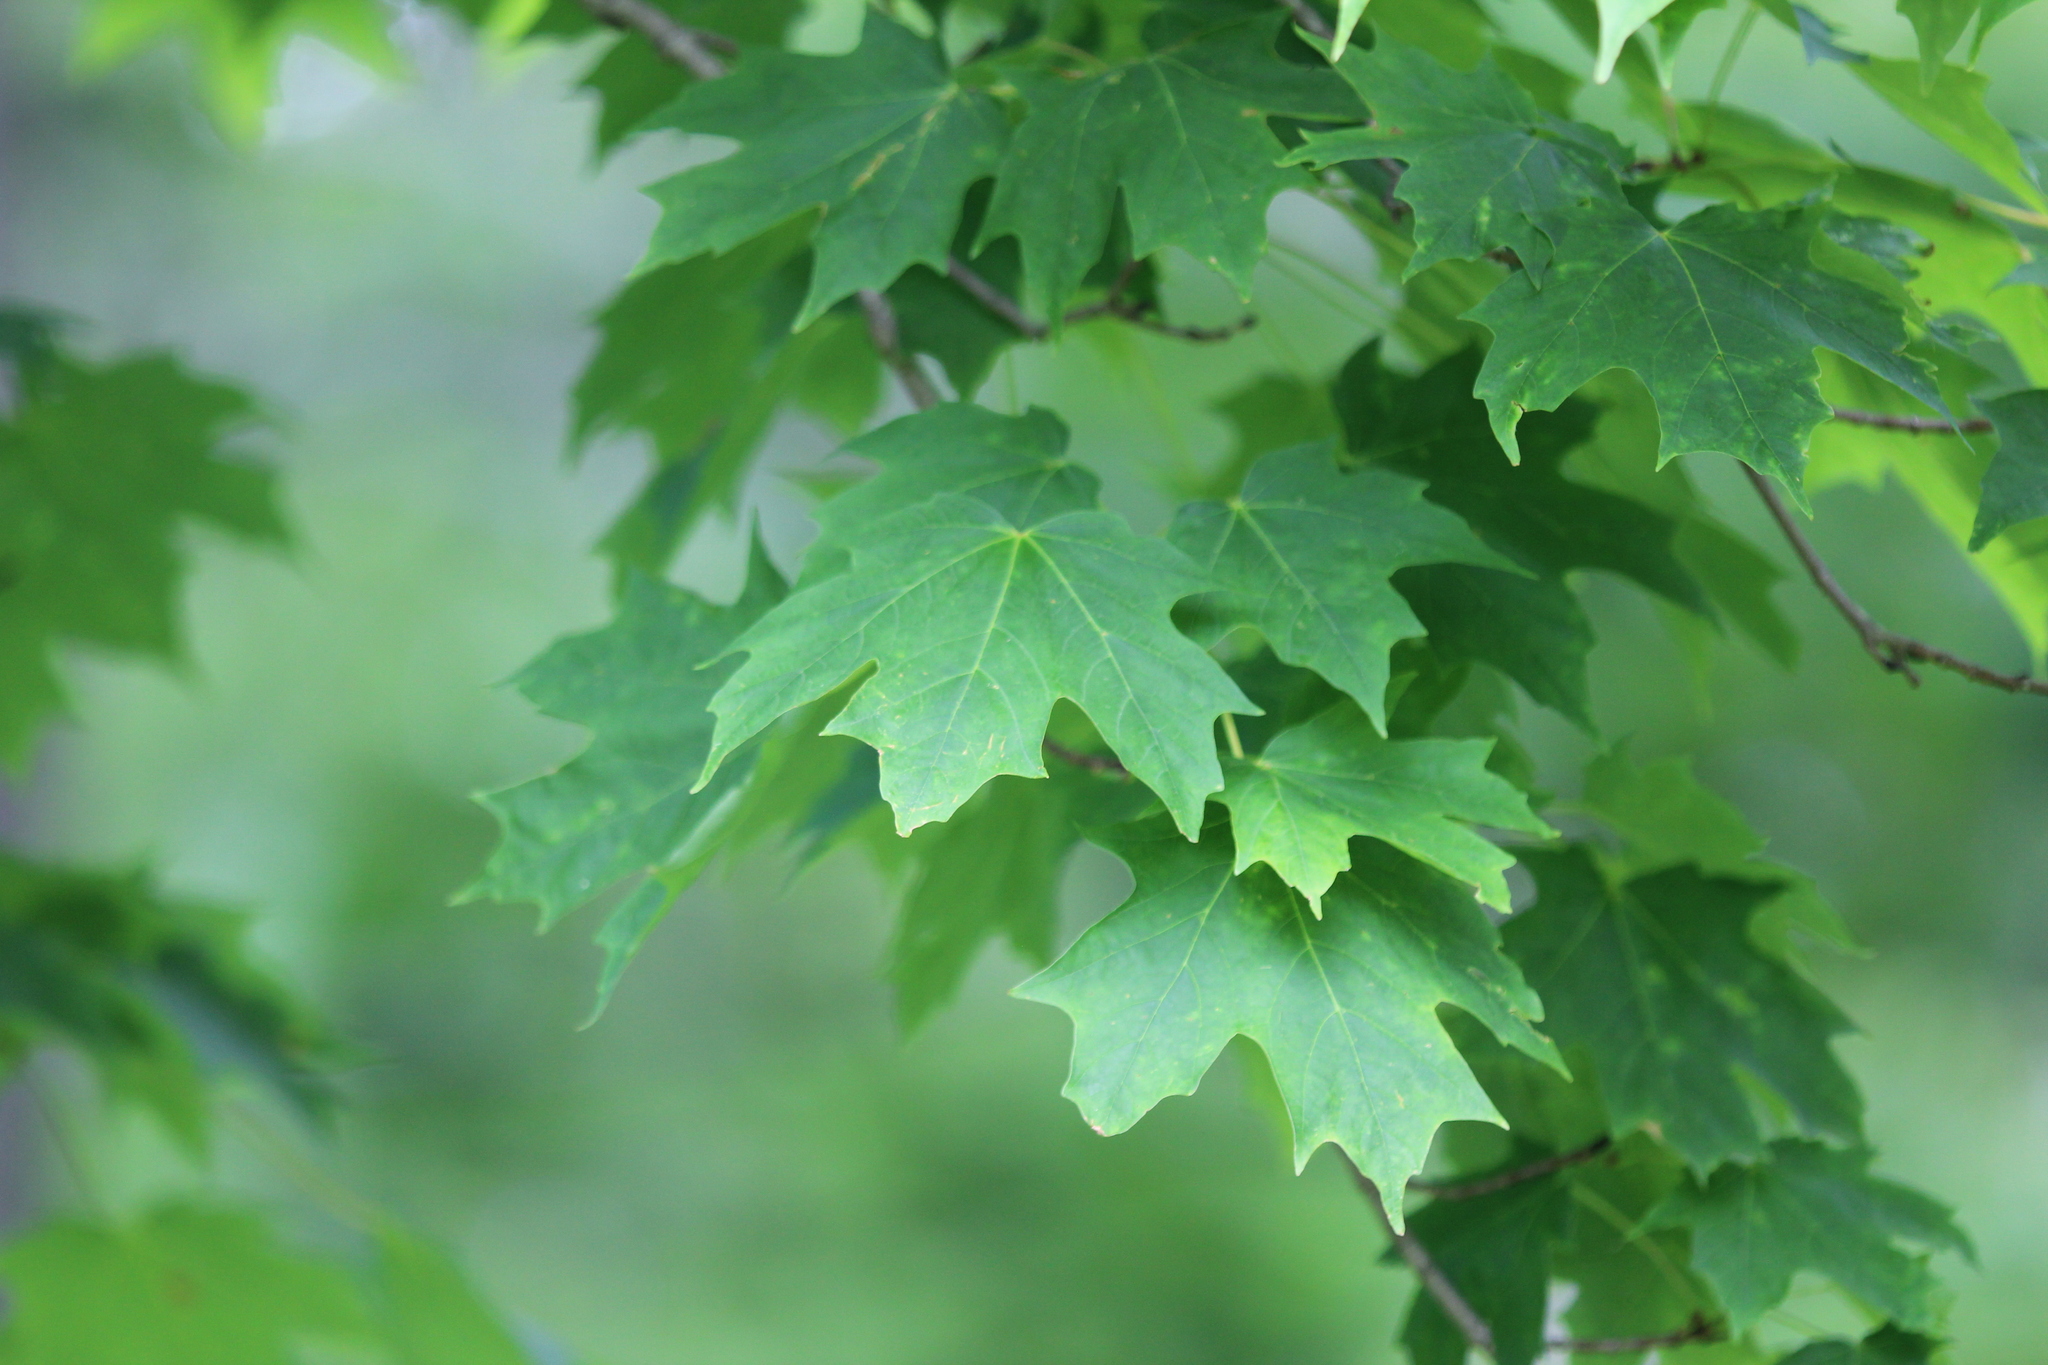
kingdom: Plantae
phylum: Tracheophyta
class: Magnoliopsida
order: Sapindales
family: Sapindaceae
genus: Acer
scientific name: Acer saccharum
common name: Sugar maple
